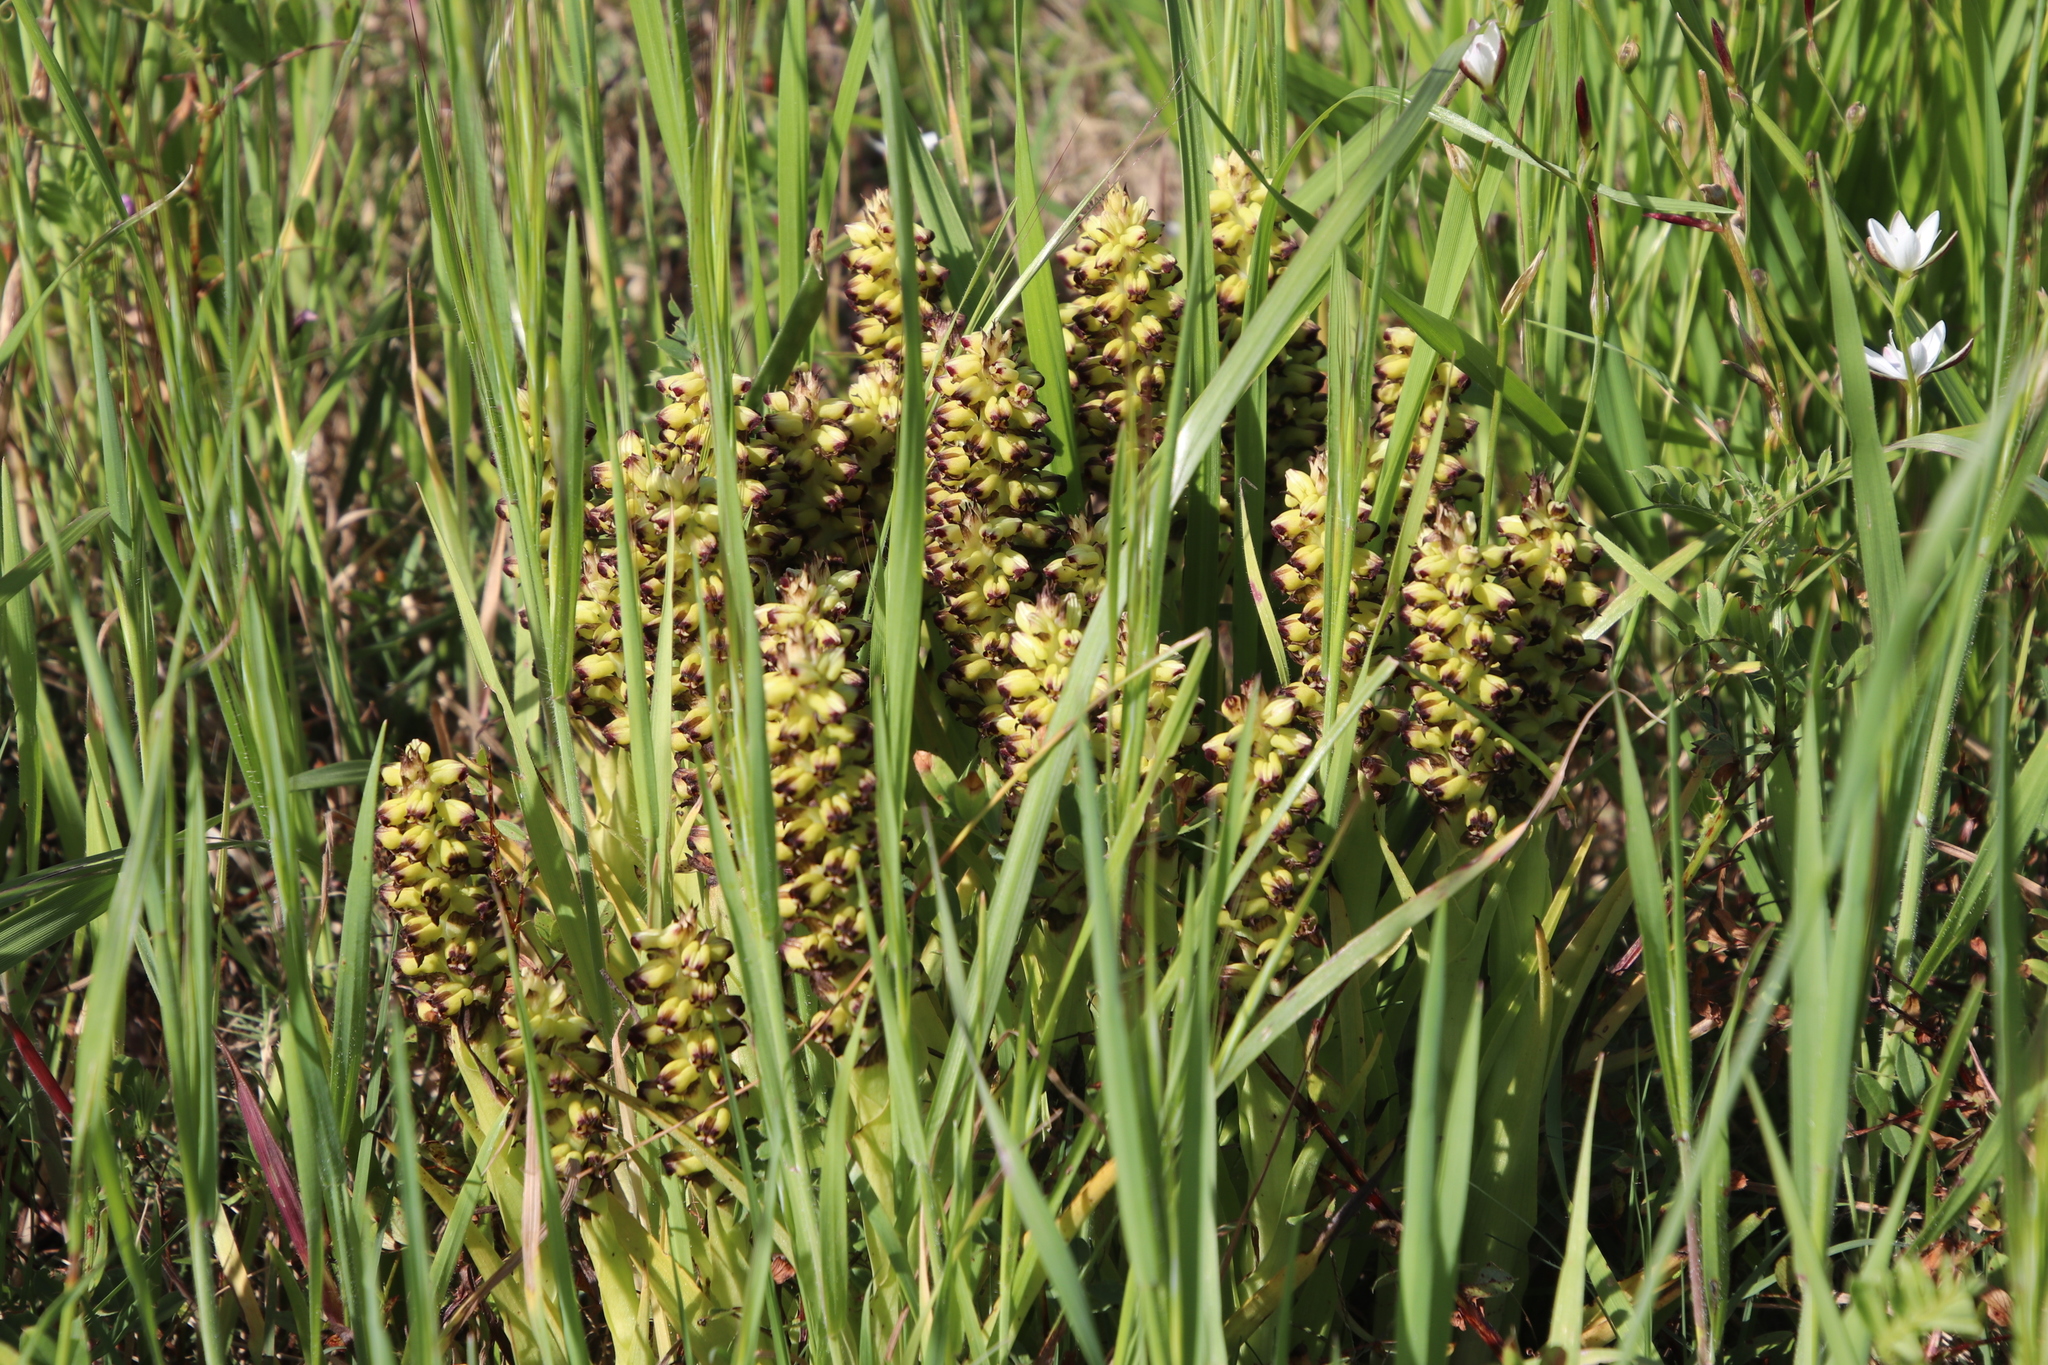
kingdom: Plantae
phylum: Tracheophyta
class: Liliopsida
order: Asparagales
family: Orchidaceae
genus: Corycium
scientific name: Corycium orobanchoides
